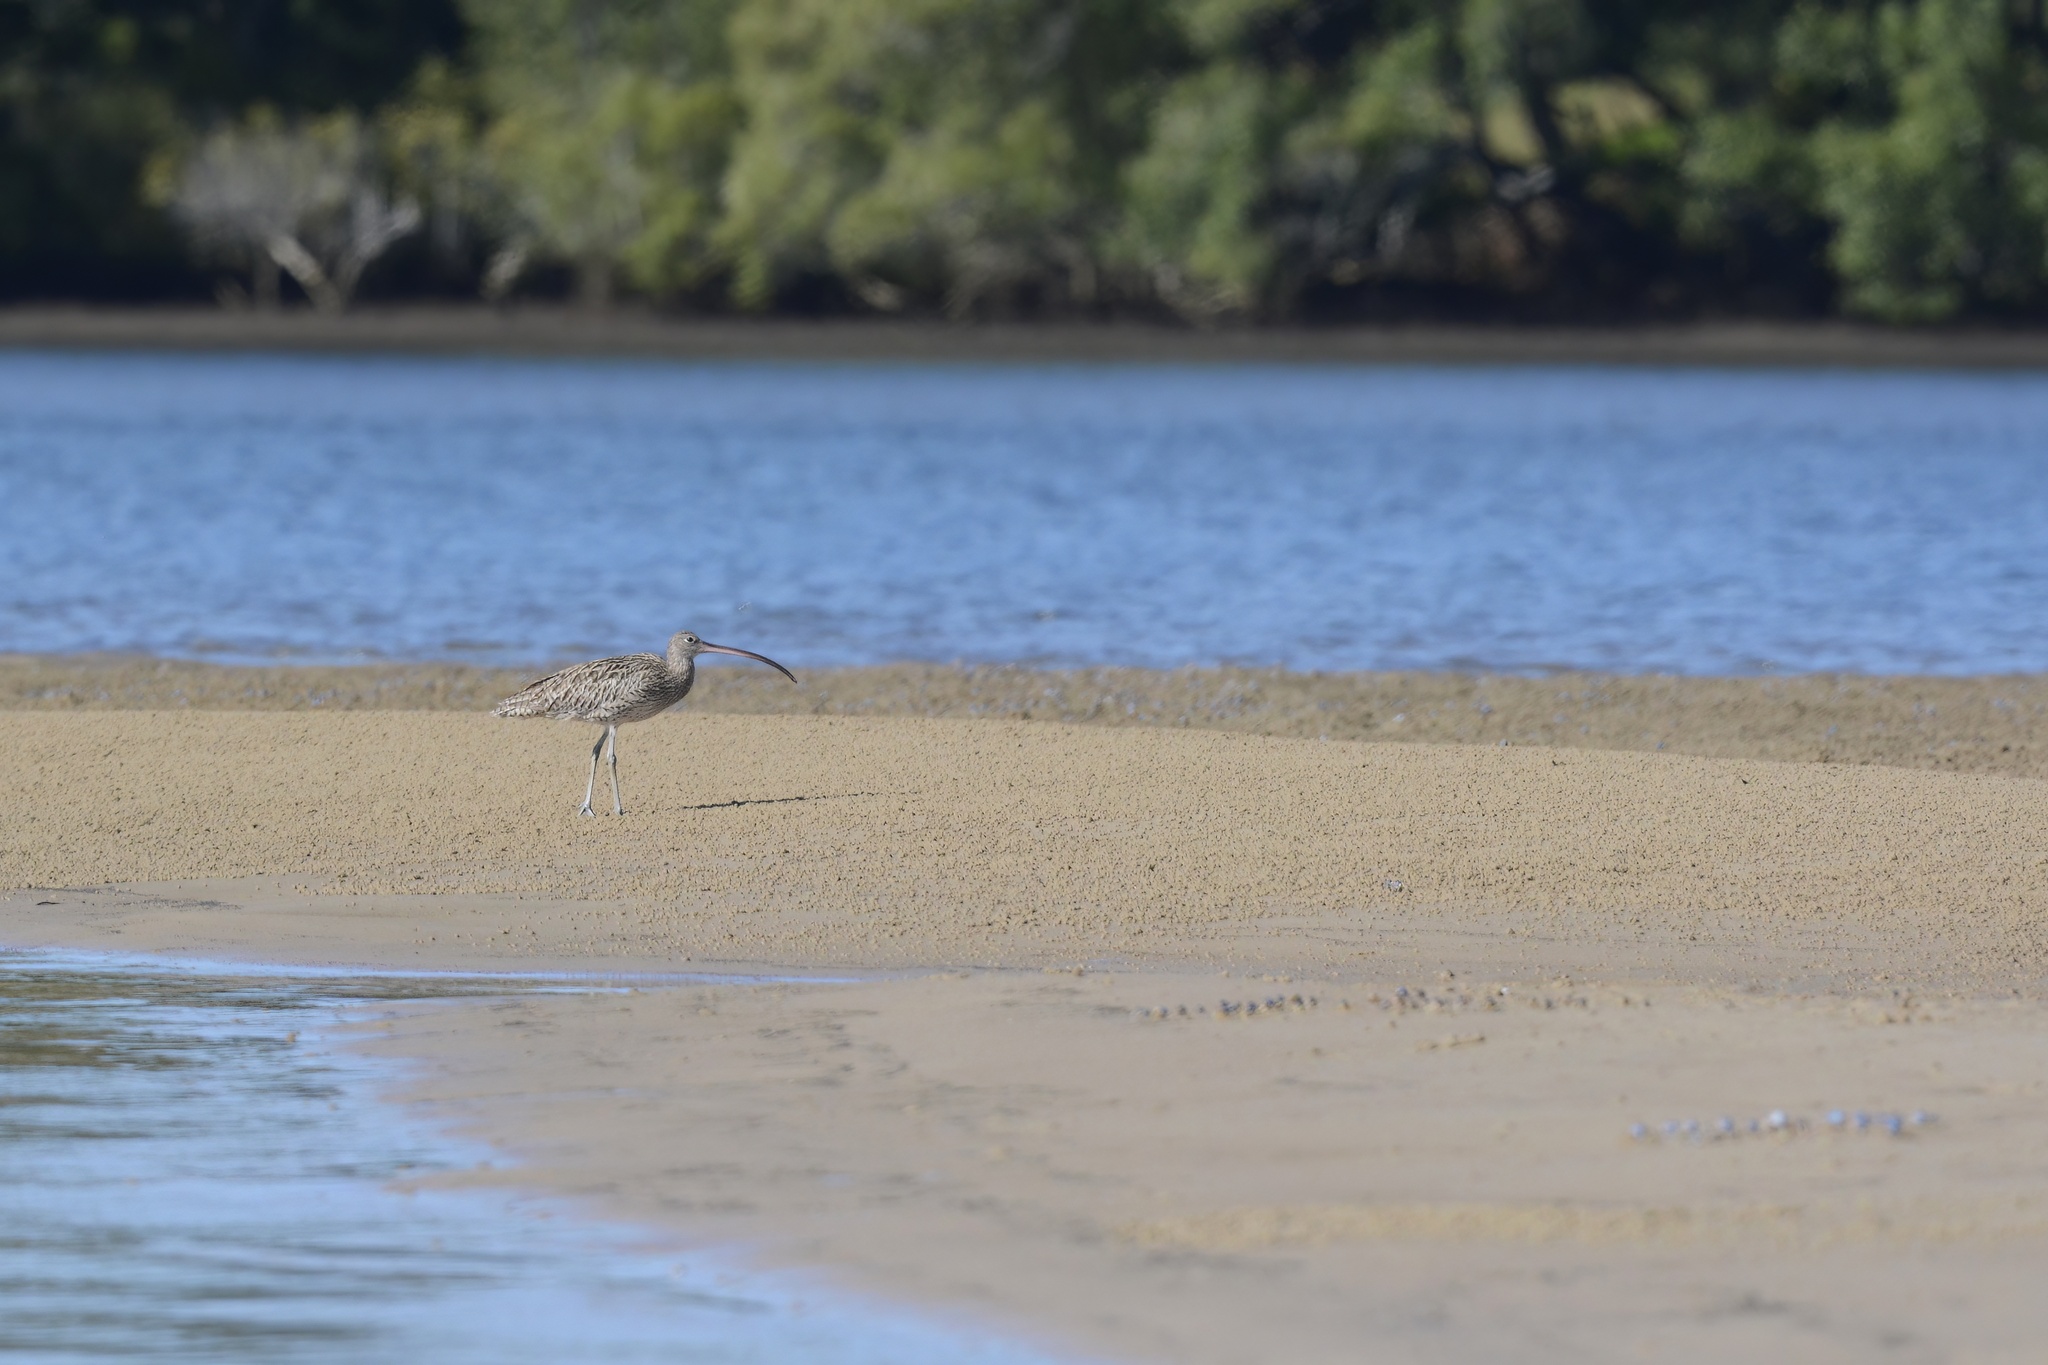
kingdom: Animalia
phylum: Chordata
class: Aves
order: Charadriiformes
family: Scolopacidae
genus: Numenius
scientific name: Numenius madagascariensis
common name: Far eastern curlew
